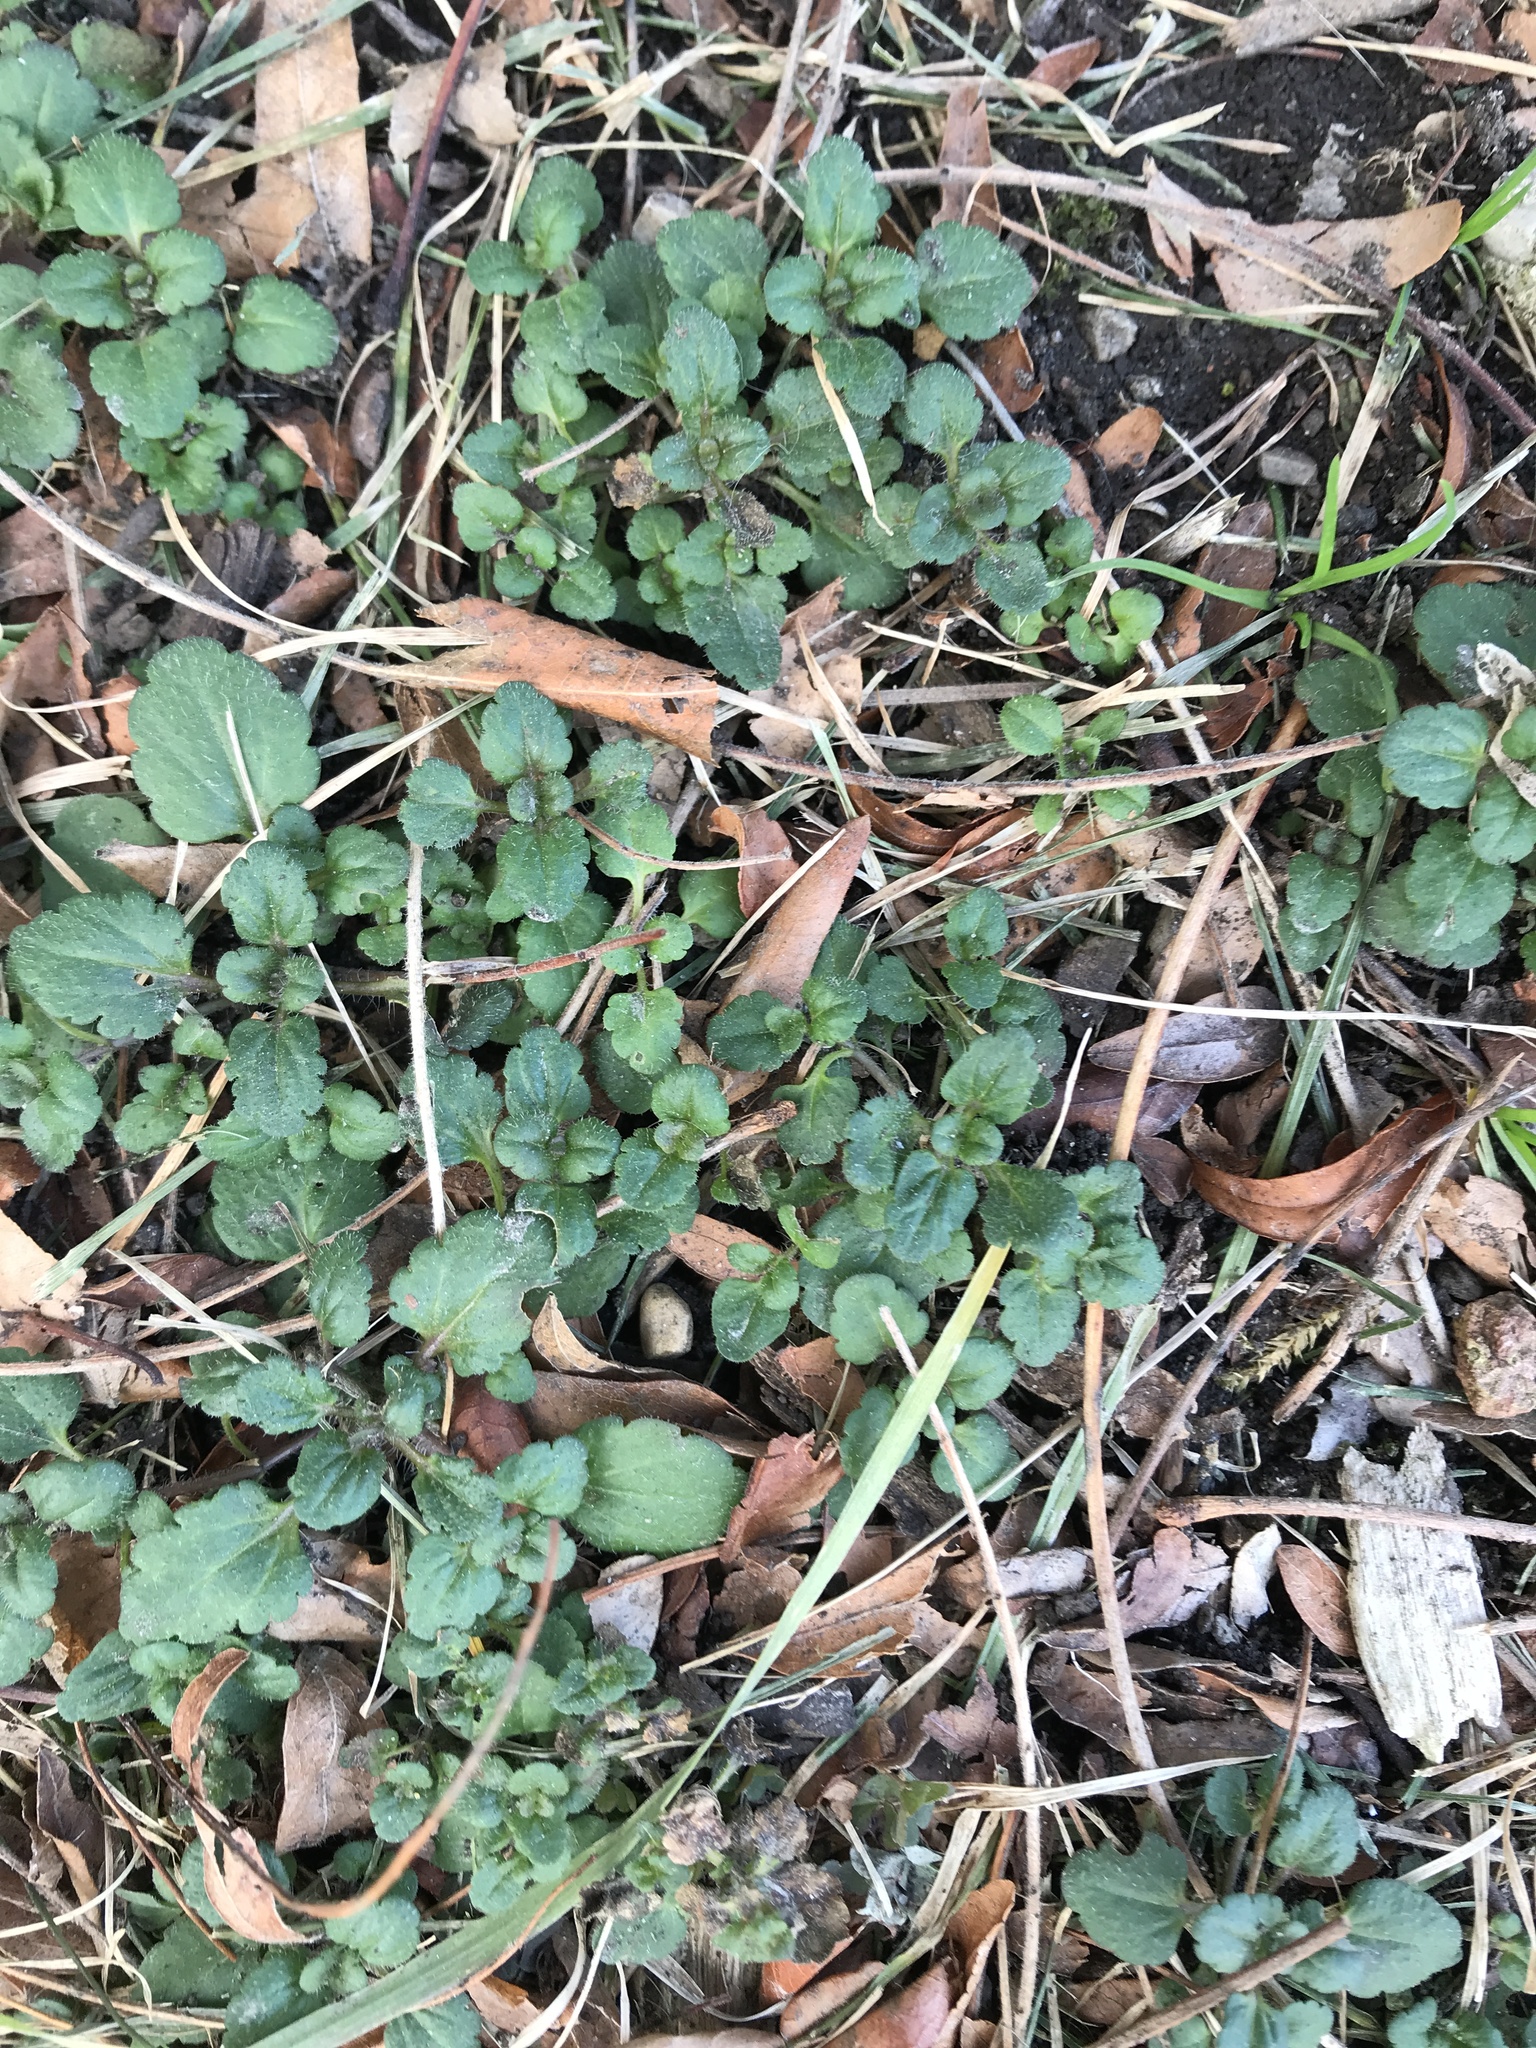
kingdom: Plantae
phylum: Tracheophyta
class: Magnoliopsida
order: Lamiales
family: Plantaginaceae
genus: Veronica
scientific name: Veronica persica
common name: Common field-speedwell
